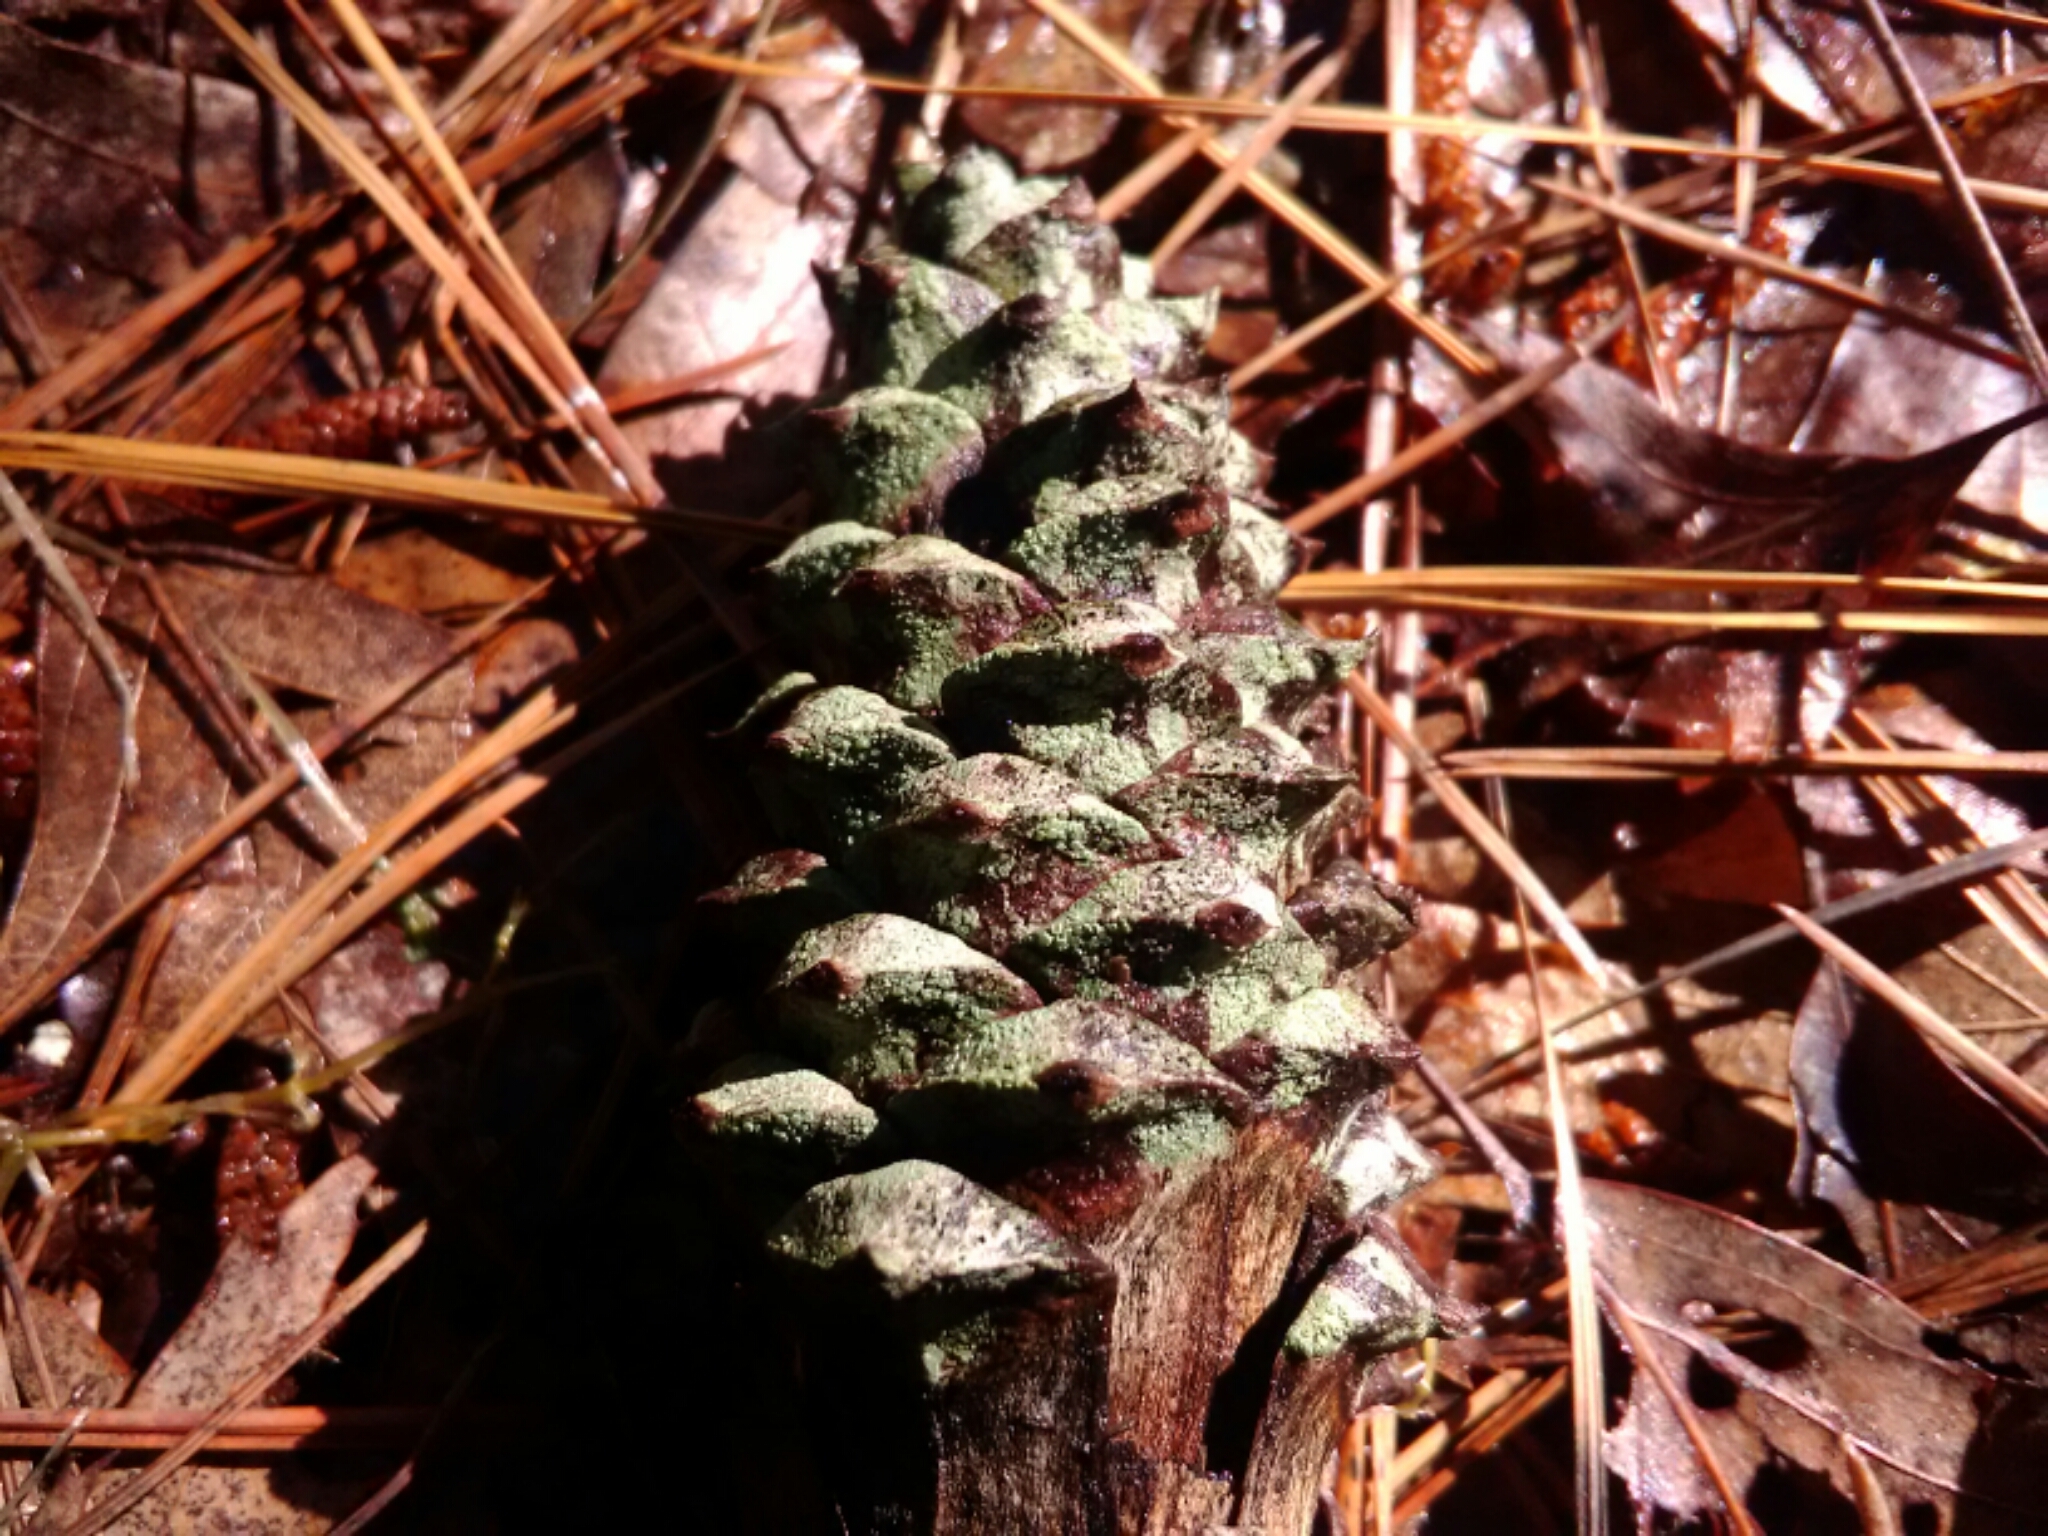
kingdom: Fungi
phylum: Ascomycota
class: Lecanoromycetes
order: Lecanorales
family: Lecanoraceae
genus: Lecanora
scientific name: Lecanora minutella
